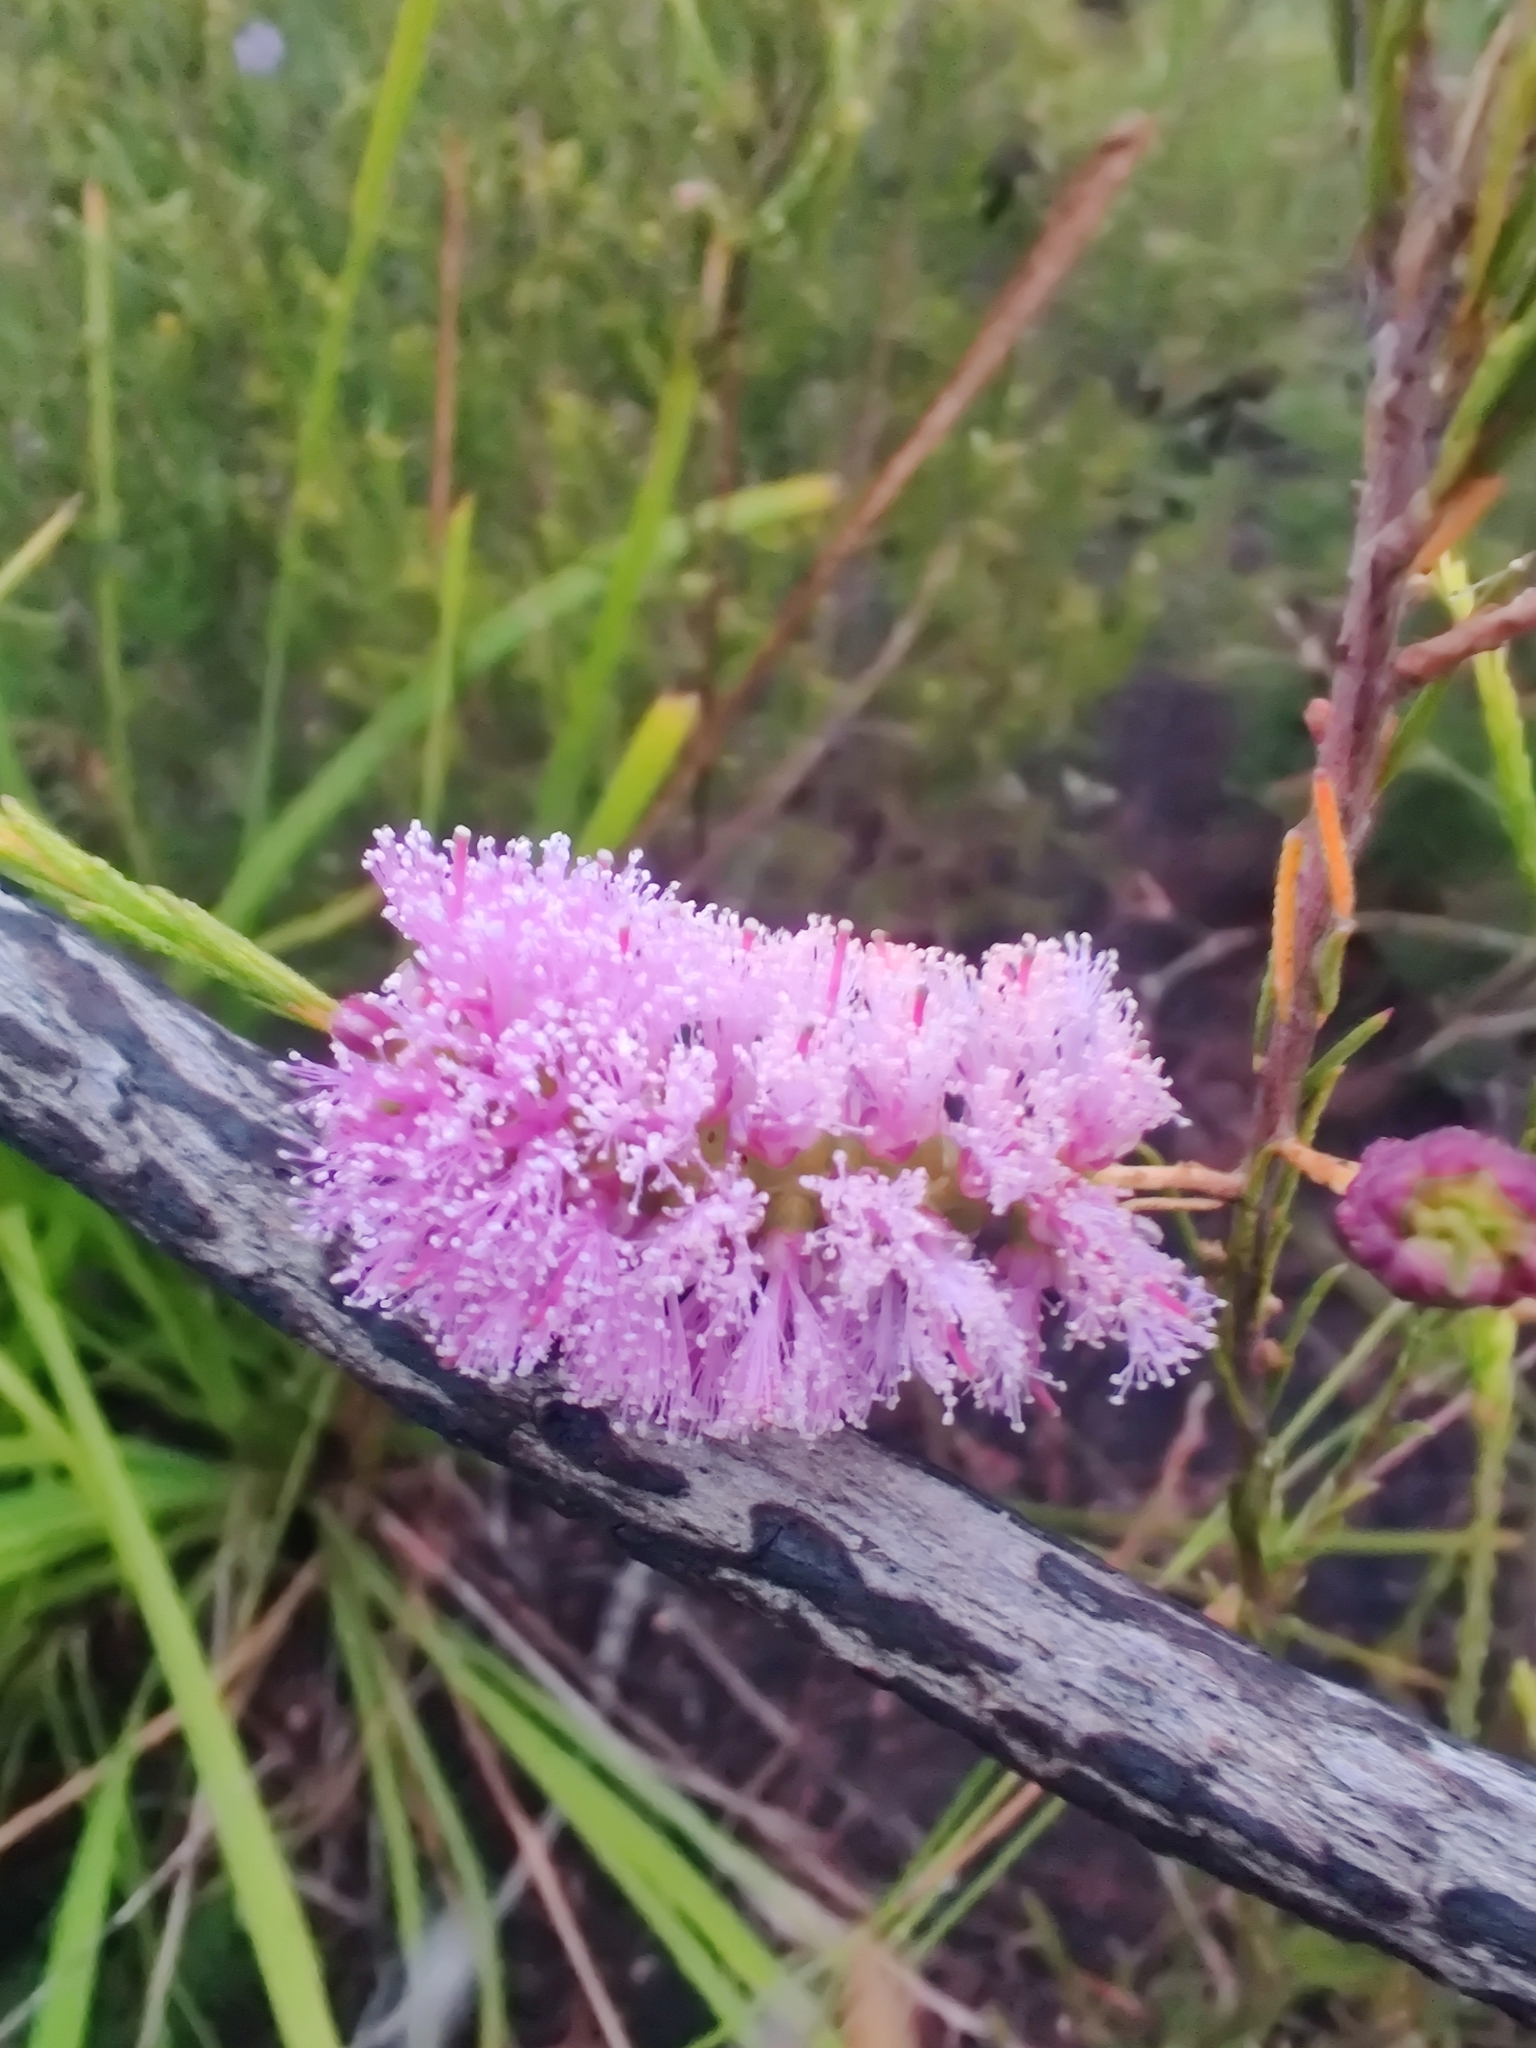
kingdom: Plantae
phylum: Tracheophyta
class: Magnoliopsida
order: Myrtales
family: Myrtaceae
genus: Melaleuca
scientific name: Melaleuca diosmatifolia
